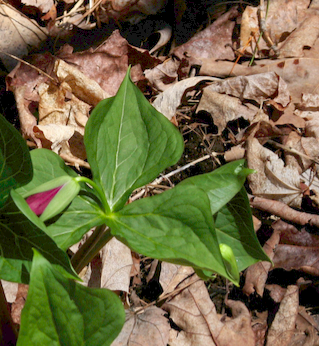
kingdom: Plantae
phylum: Tracheophyta
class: Liliopsida
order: Liliales
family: Melanthiaceae
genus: Trillium
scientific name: Trillium erectum
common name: Purple trillium
